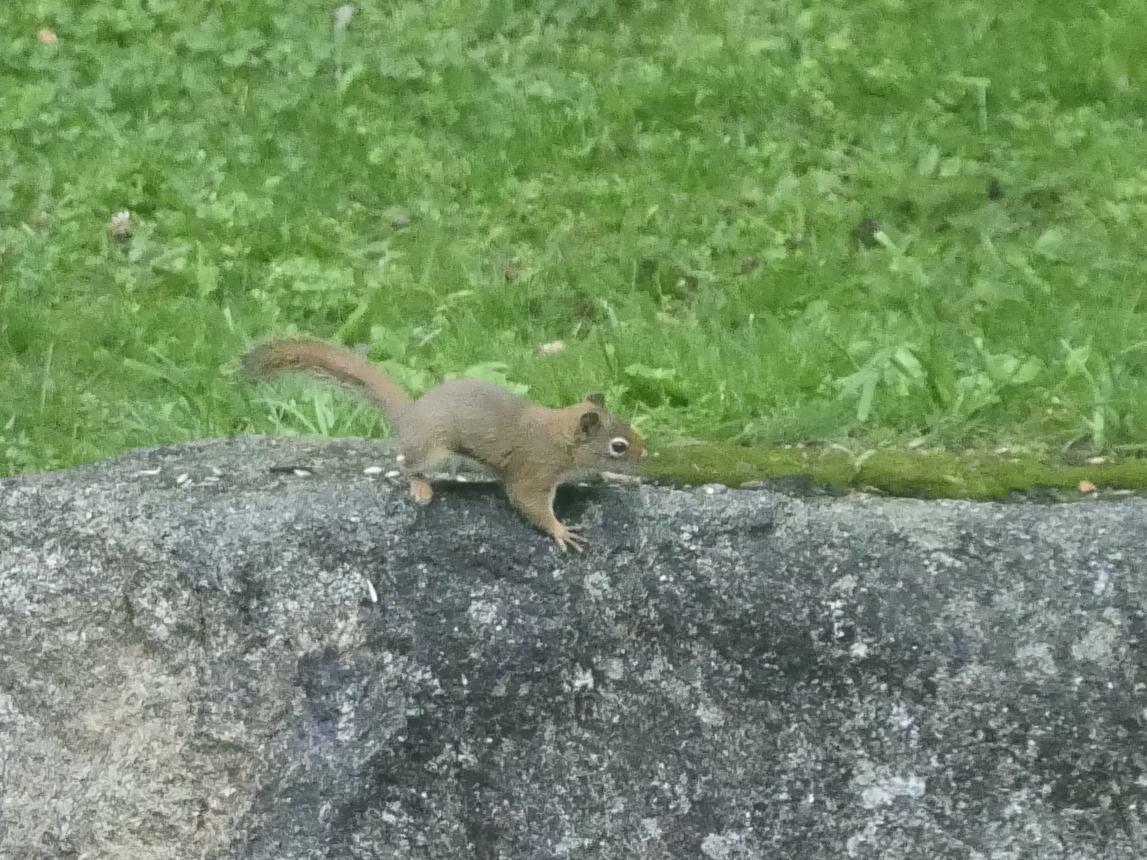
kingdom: Animalia
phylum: Chordata
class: Mammalia
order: Rodentia
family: Sciuridae
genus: Tamiasciurus
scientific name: Tamiasciurus hudsonicus
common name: Red squirrel
